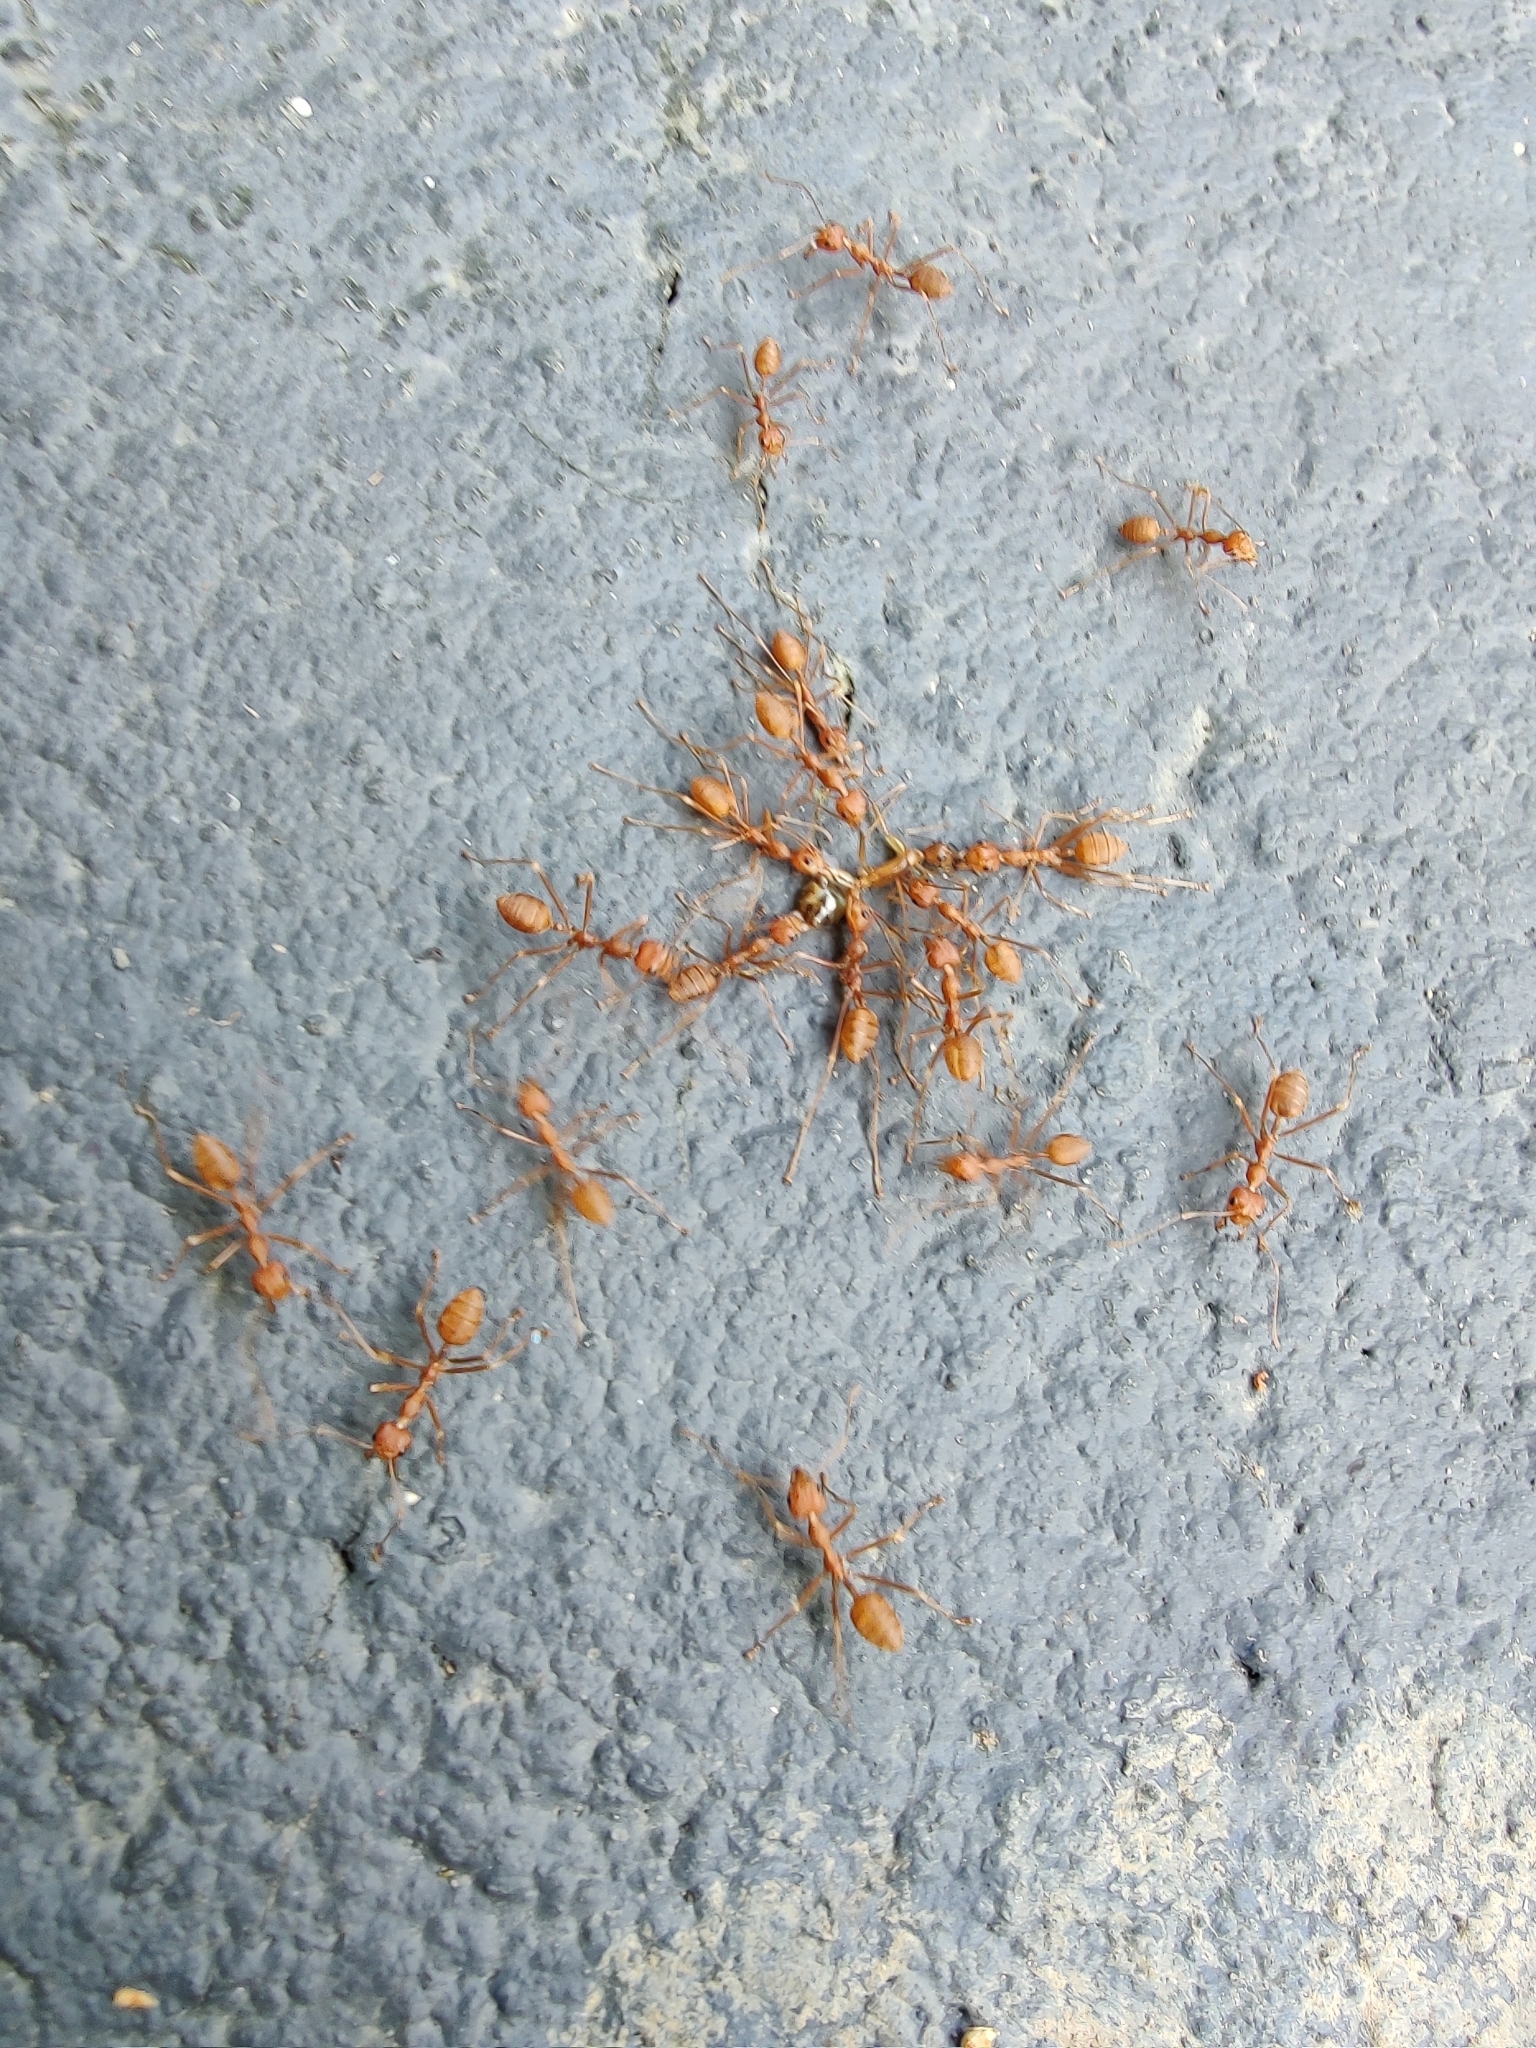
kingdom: Animalia
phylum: Arthropoda
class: Insecta
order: Hymenoptera
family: Formicidae
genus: Oecophylla
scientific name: Oecophylla smaragdina
